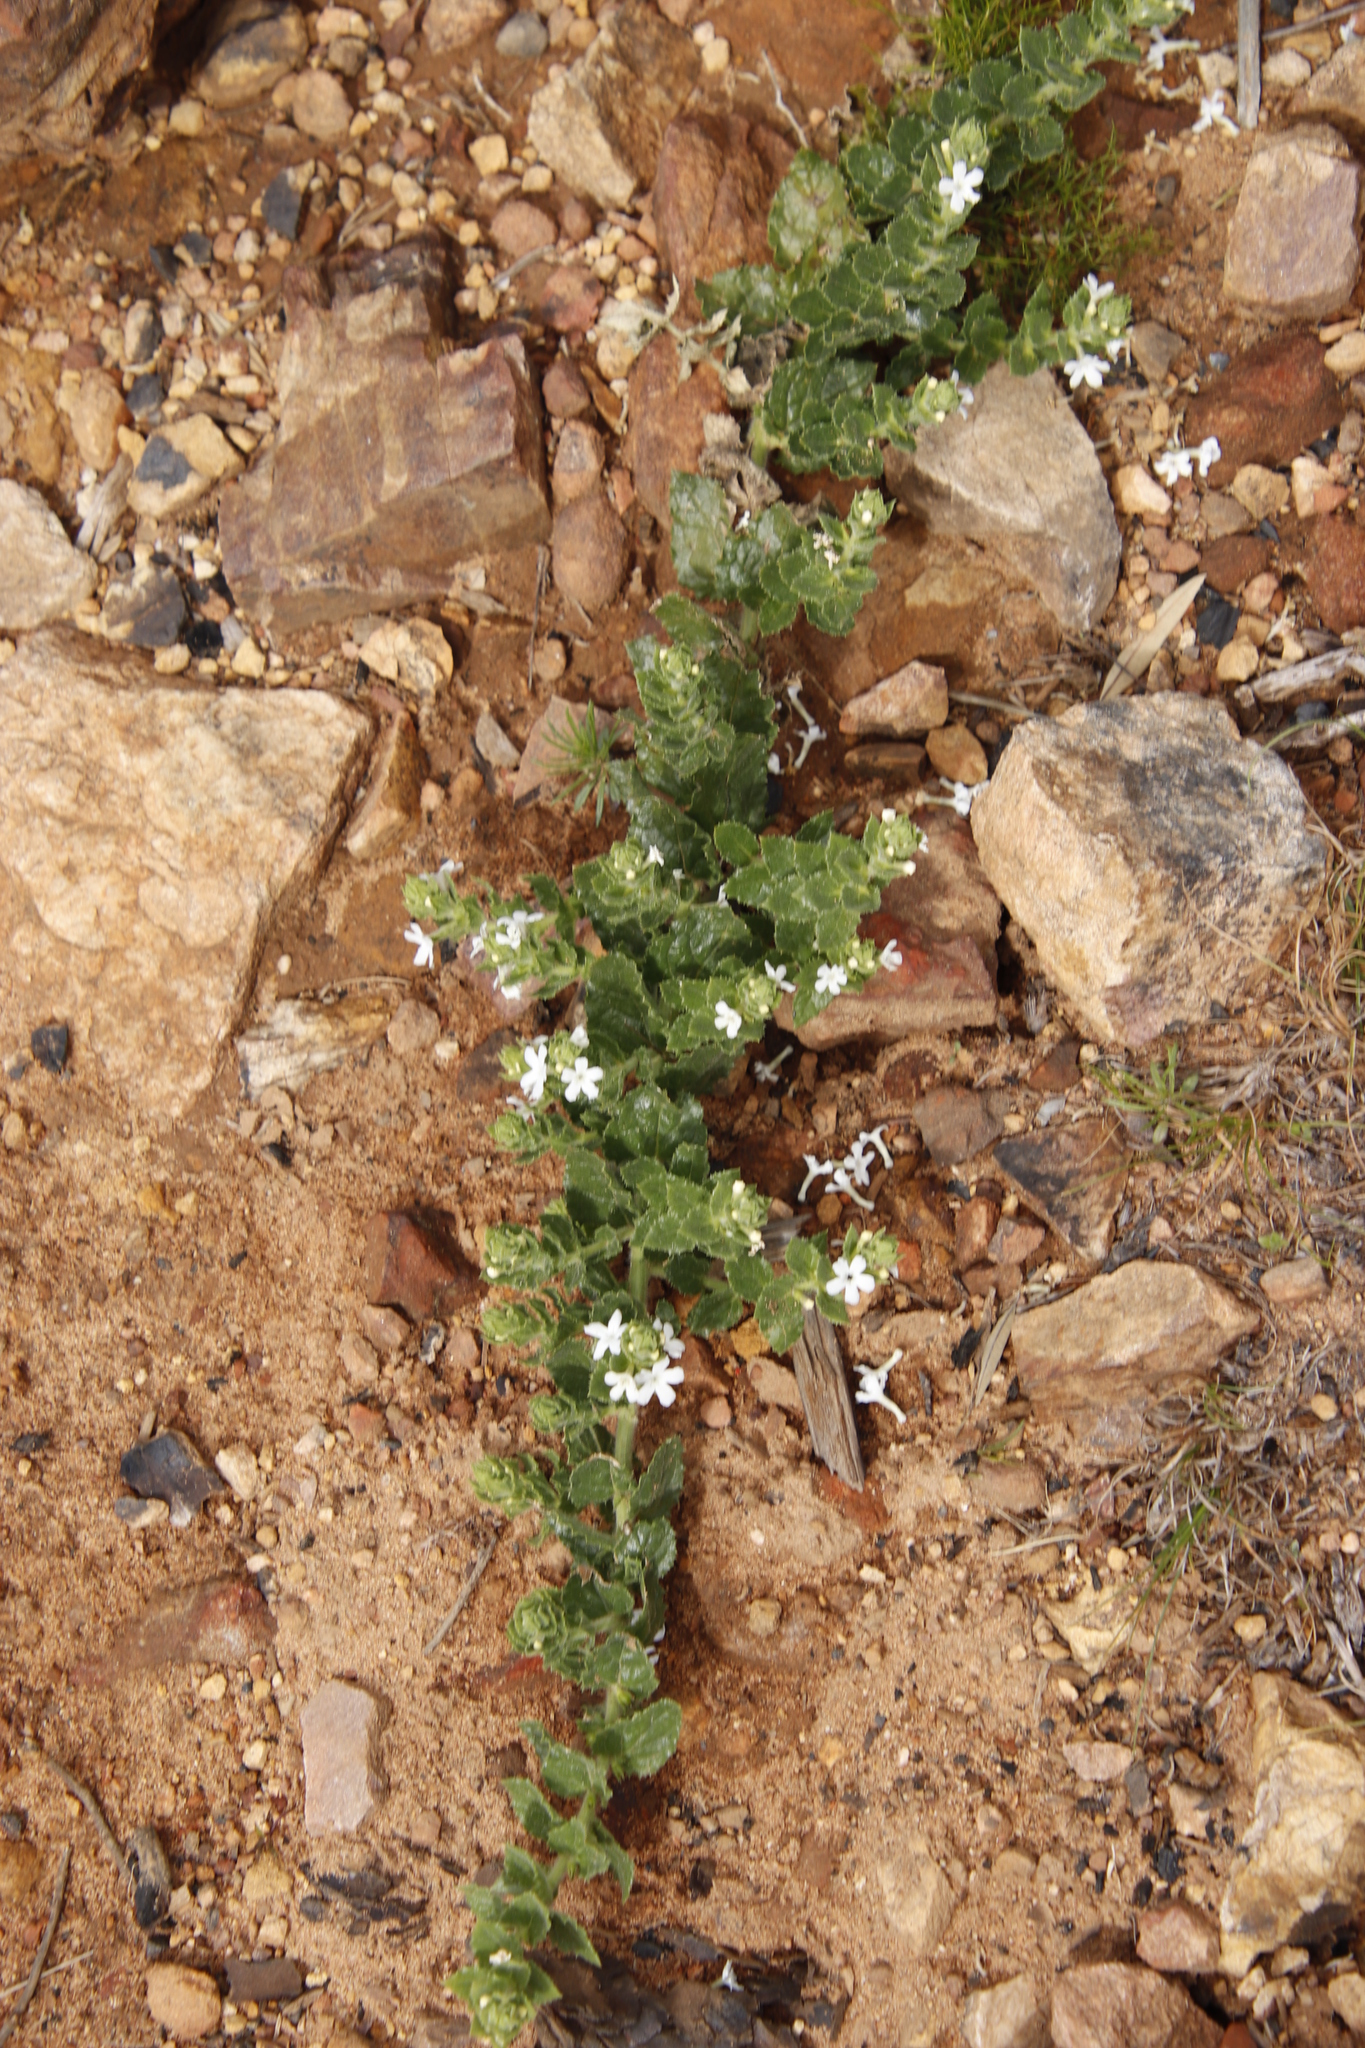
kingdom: Plantae
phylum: Tracheophyta
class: Magnoliopsida
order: Lamiales
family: Scrophulariaceae
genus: Oftia
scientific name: Oftia africana
